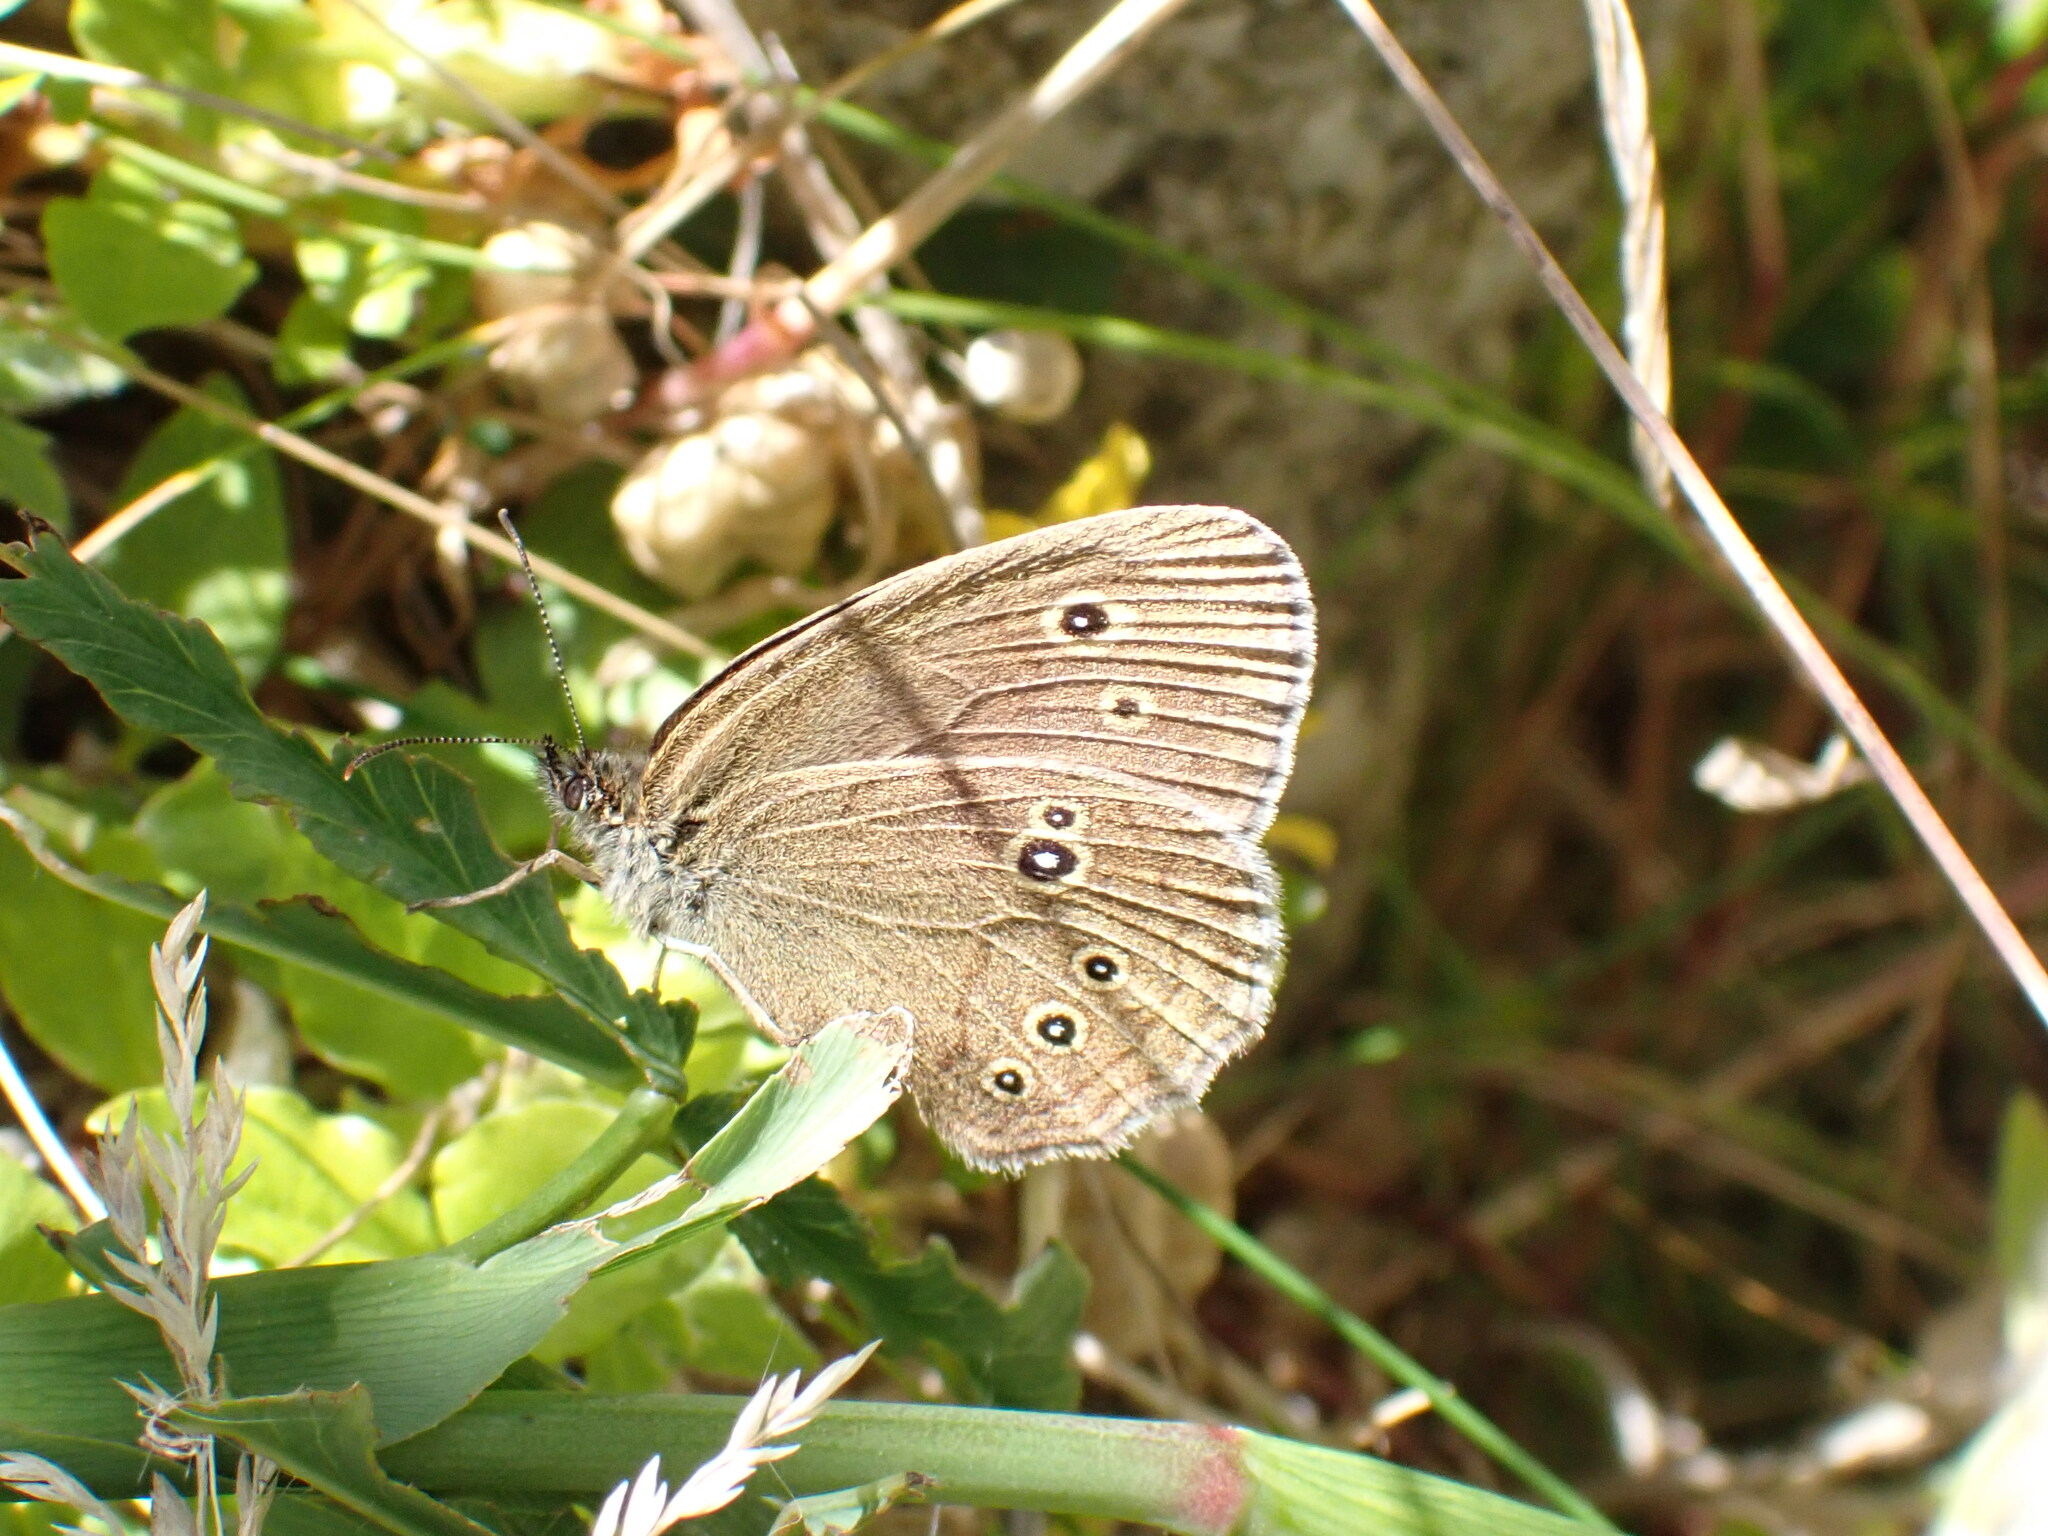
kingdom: Animalia
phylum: Arthropoda
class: Insecta
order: Lepidoptera
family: Nymphalidae
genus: Aphantopus
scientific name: Aphantopus hyperantus
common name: Ringlet
